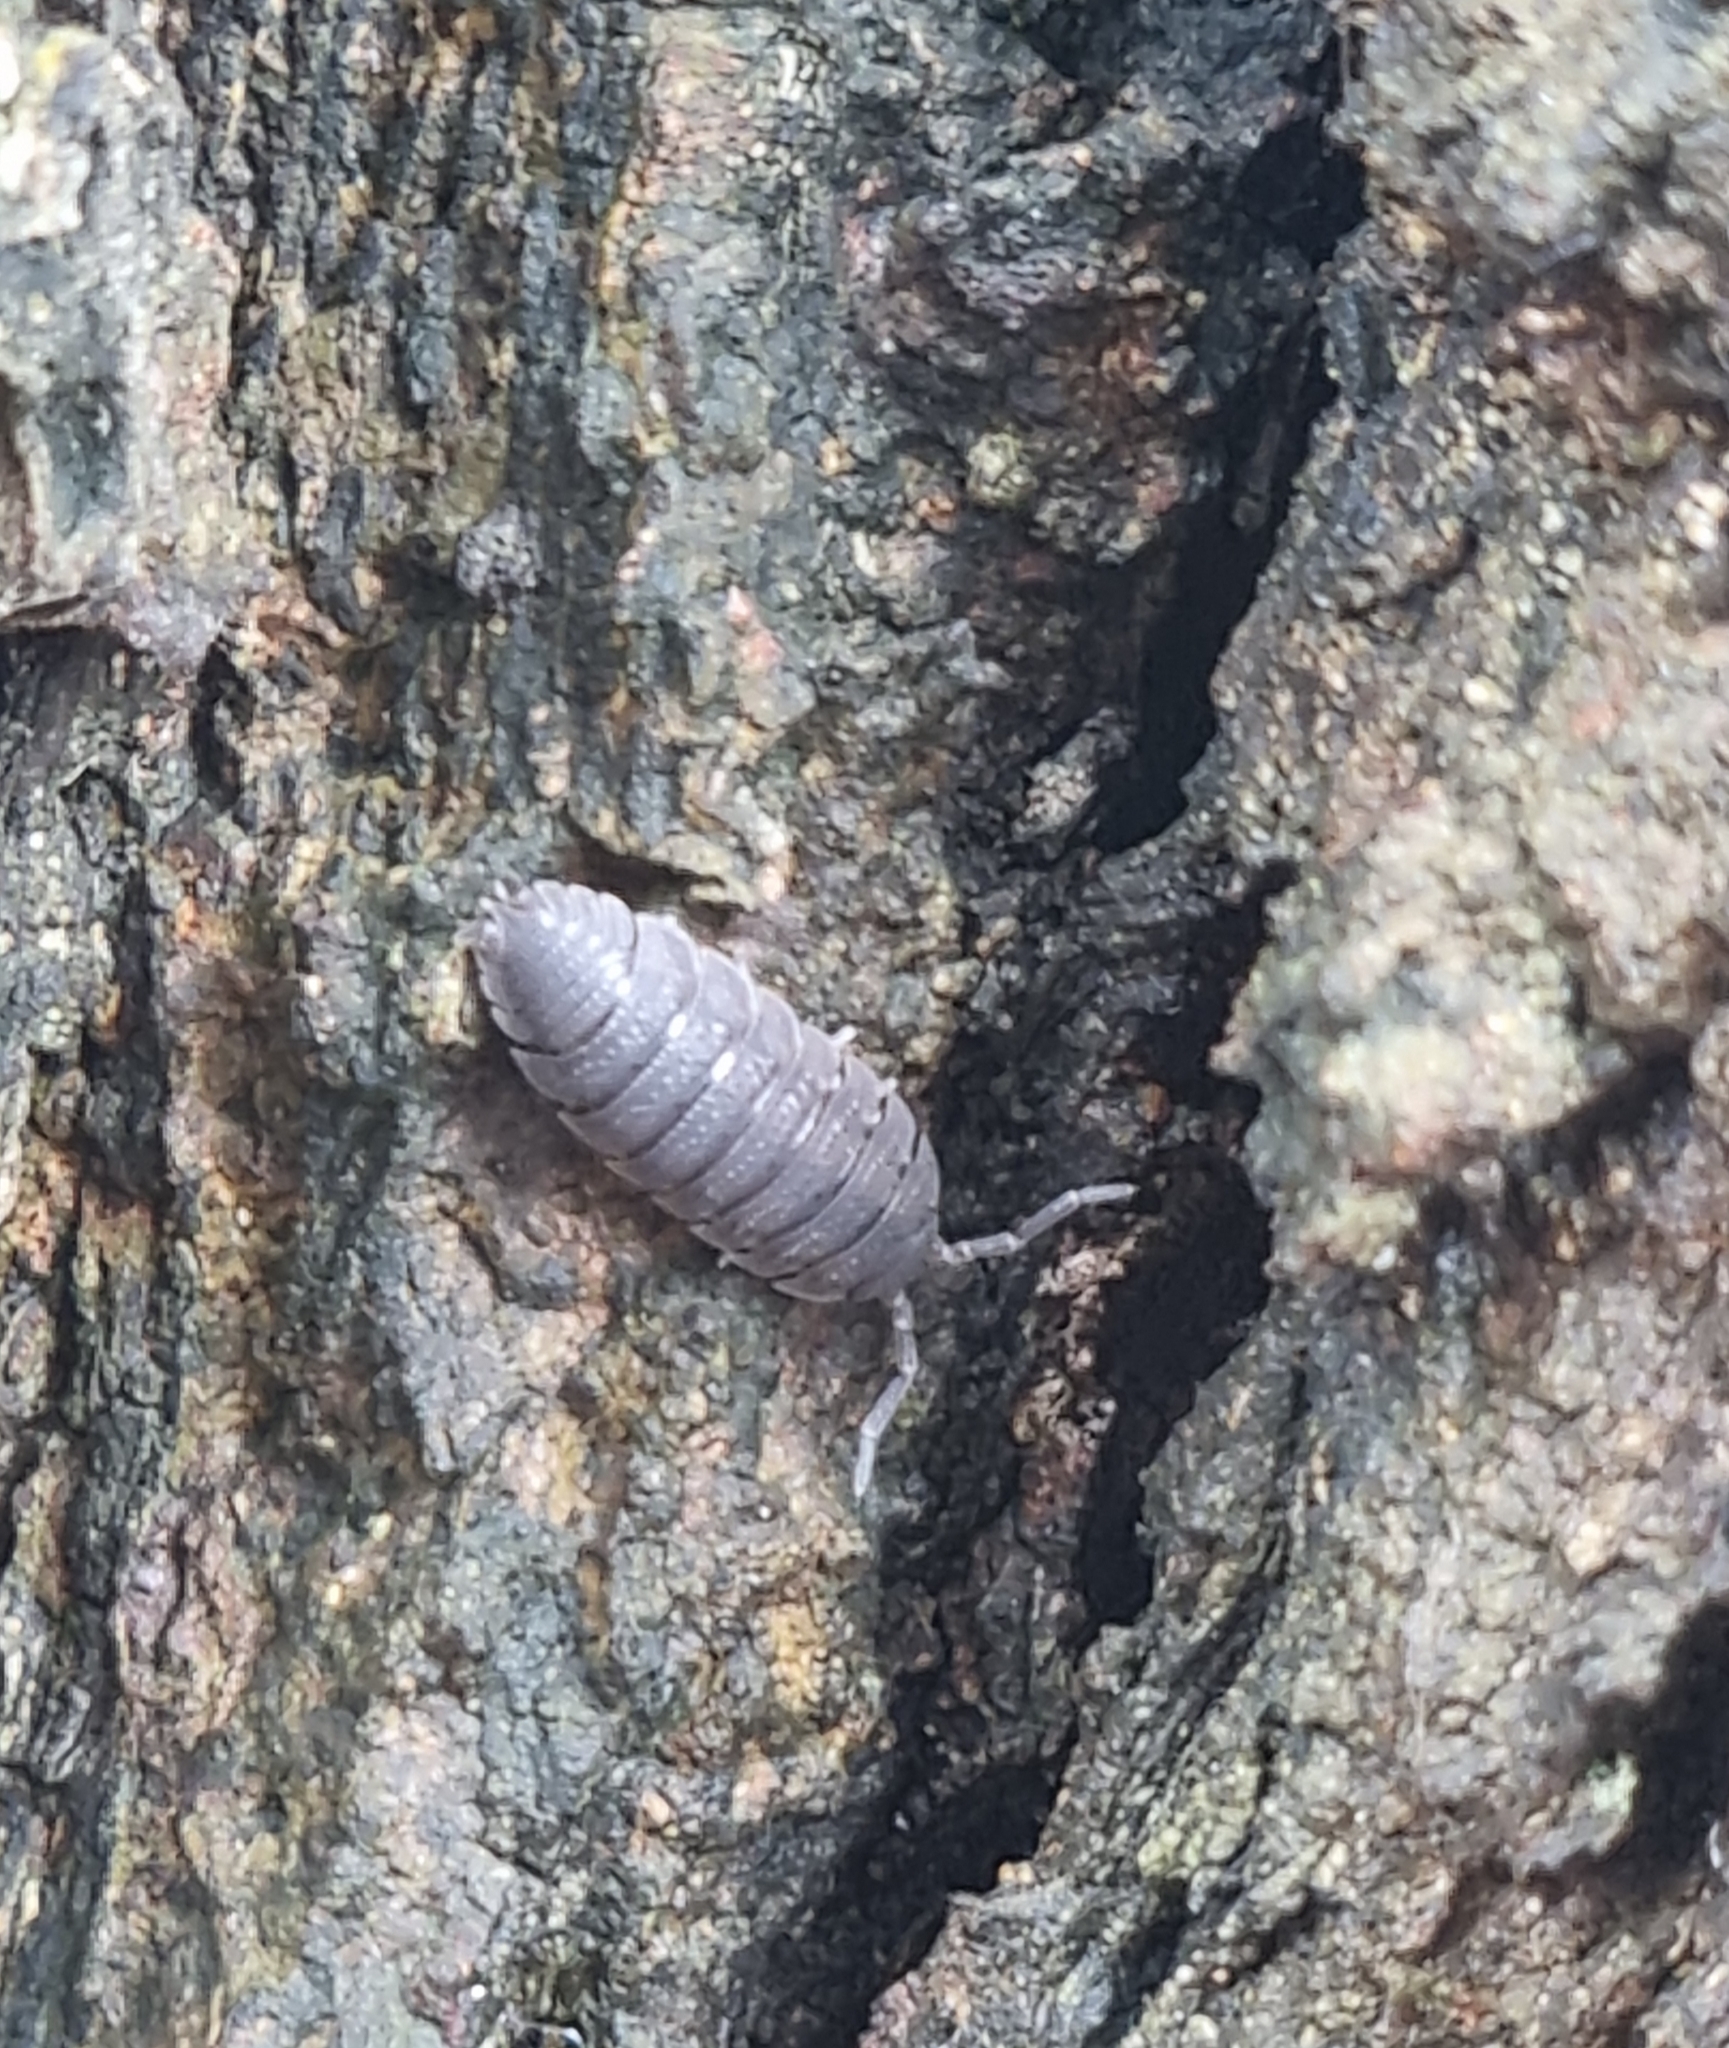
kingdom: Animalia
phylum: Arthropoda
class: Malacostraca
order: Isopoda
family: Porcellionidae
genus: Porcellio
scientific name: Porcellio scaber
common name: Common rough woodlouse
